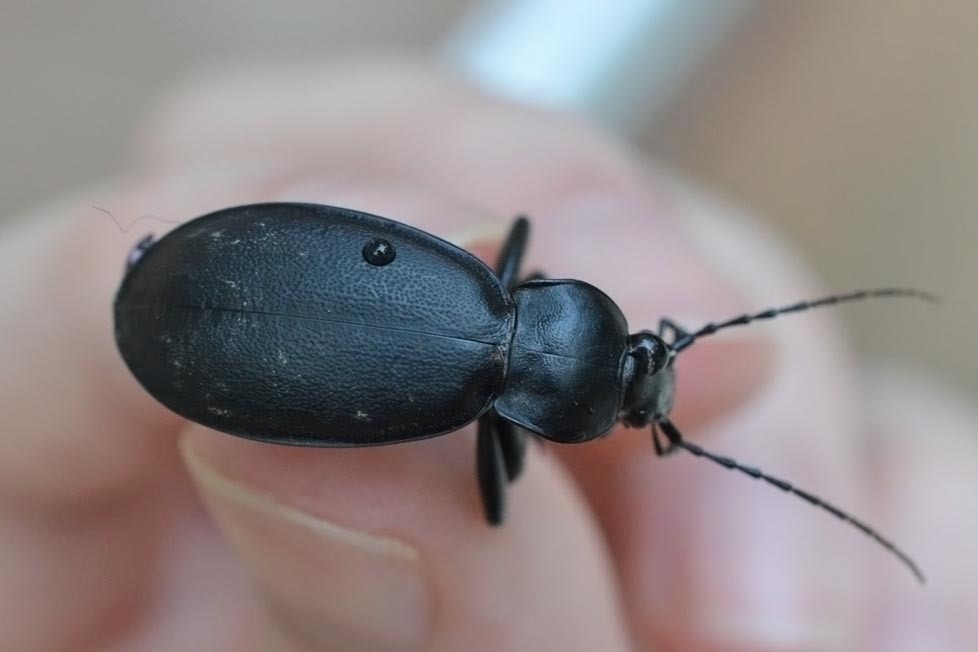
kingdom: Animalia
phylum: Arthropoda
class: Insecta
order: Coleoptera
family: Carabidae
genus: Carabus
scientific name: Carabus coriaceus
